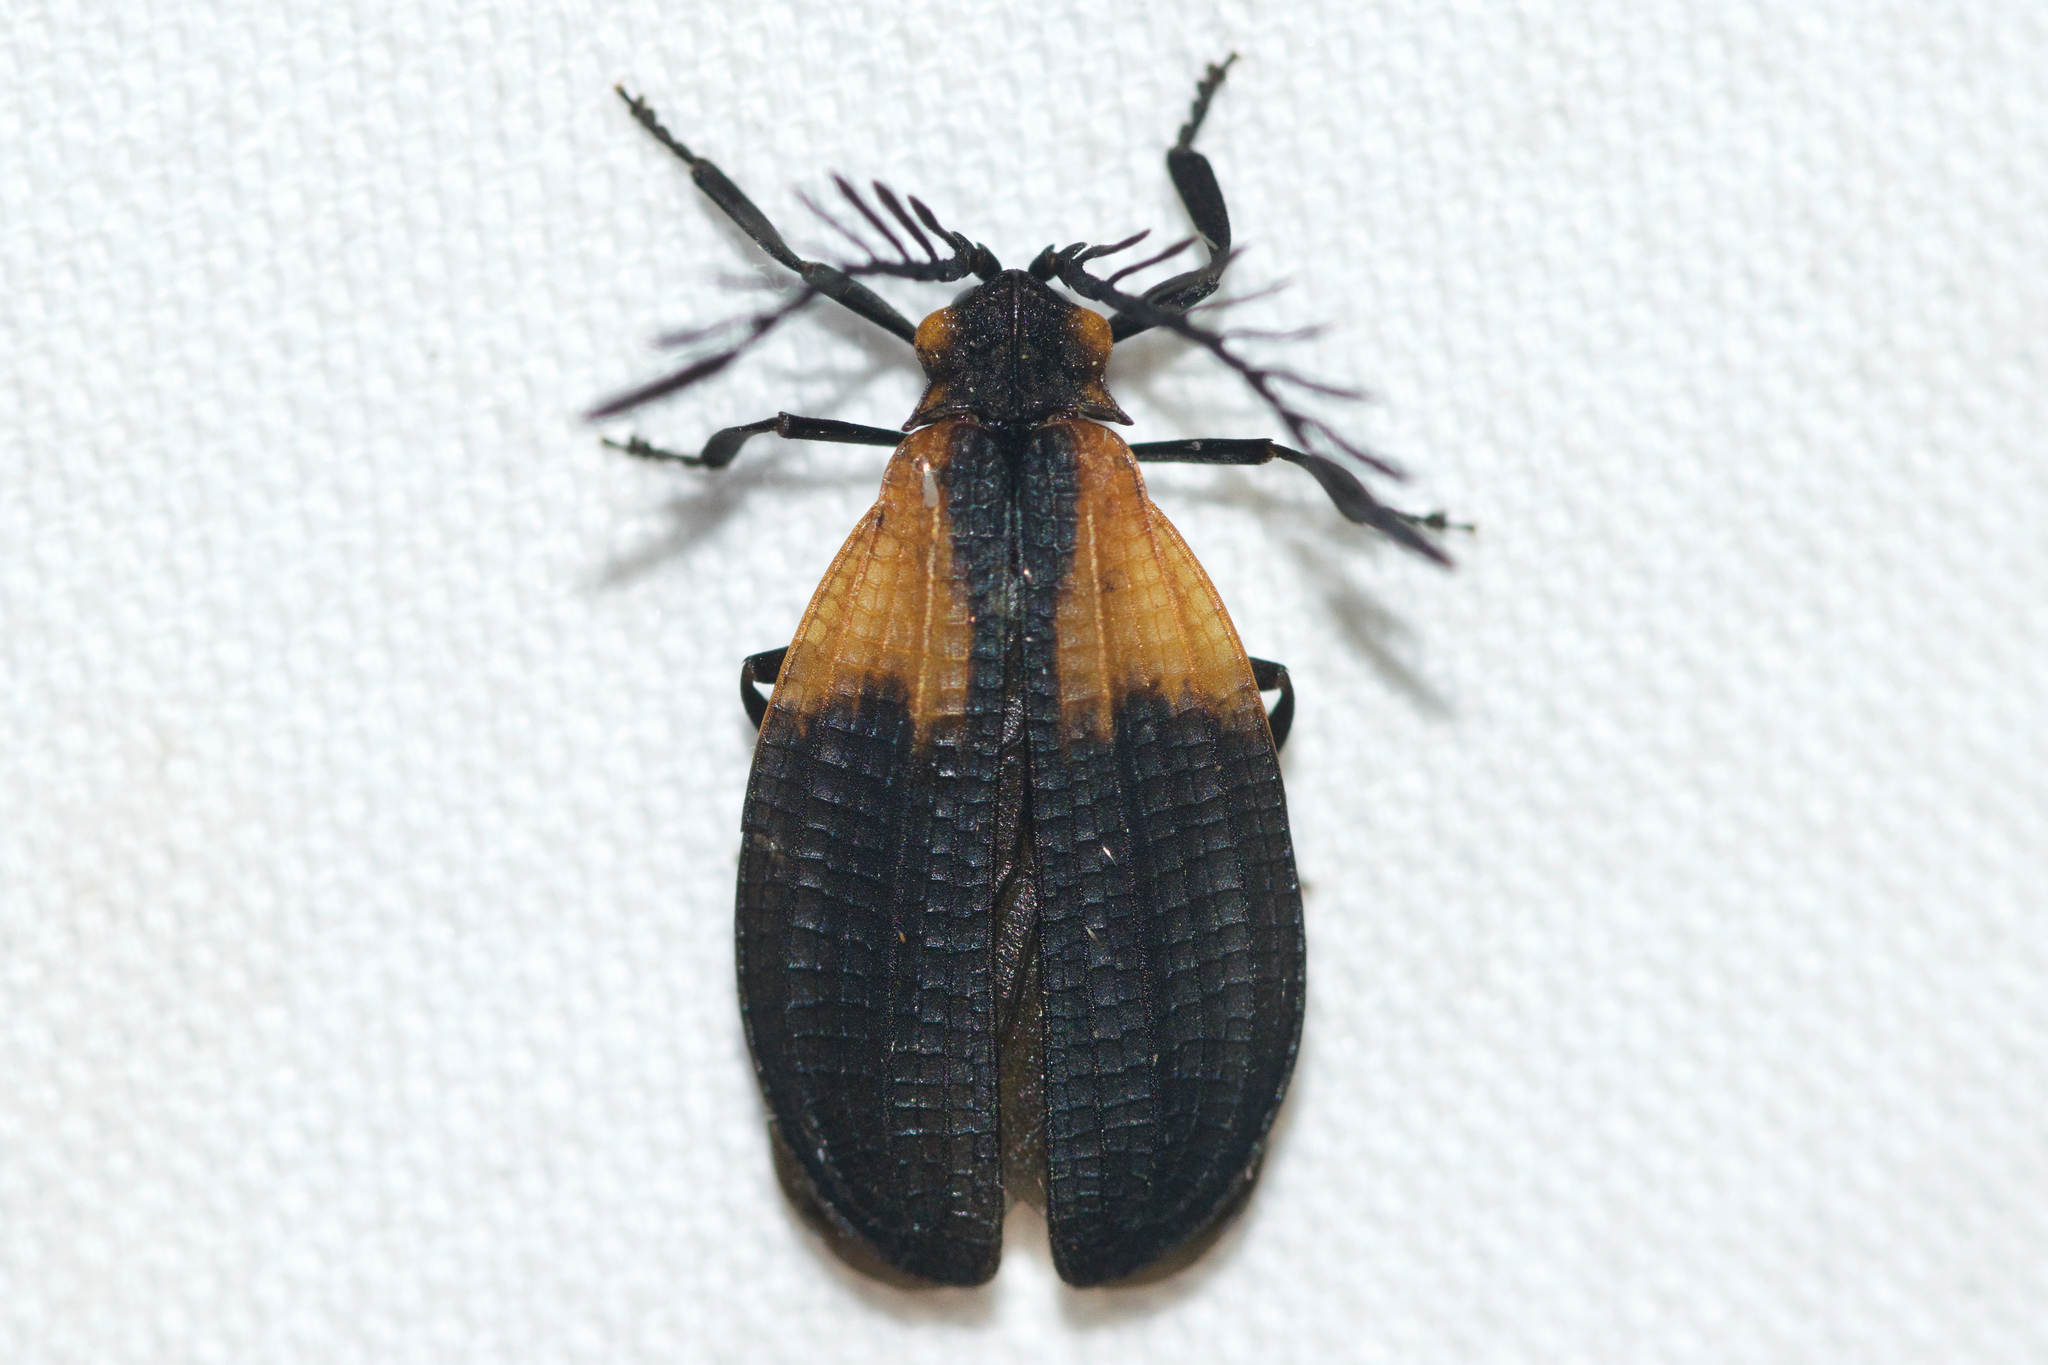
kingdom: Animalia
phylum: Arthropoda
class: Insecta
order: Coleoptera
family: Lycidae
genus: Caenia
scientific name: Caenia dimidiata
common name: Terminal net-winged beetle
